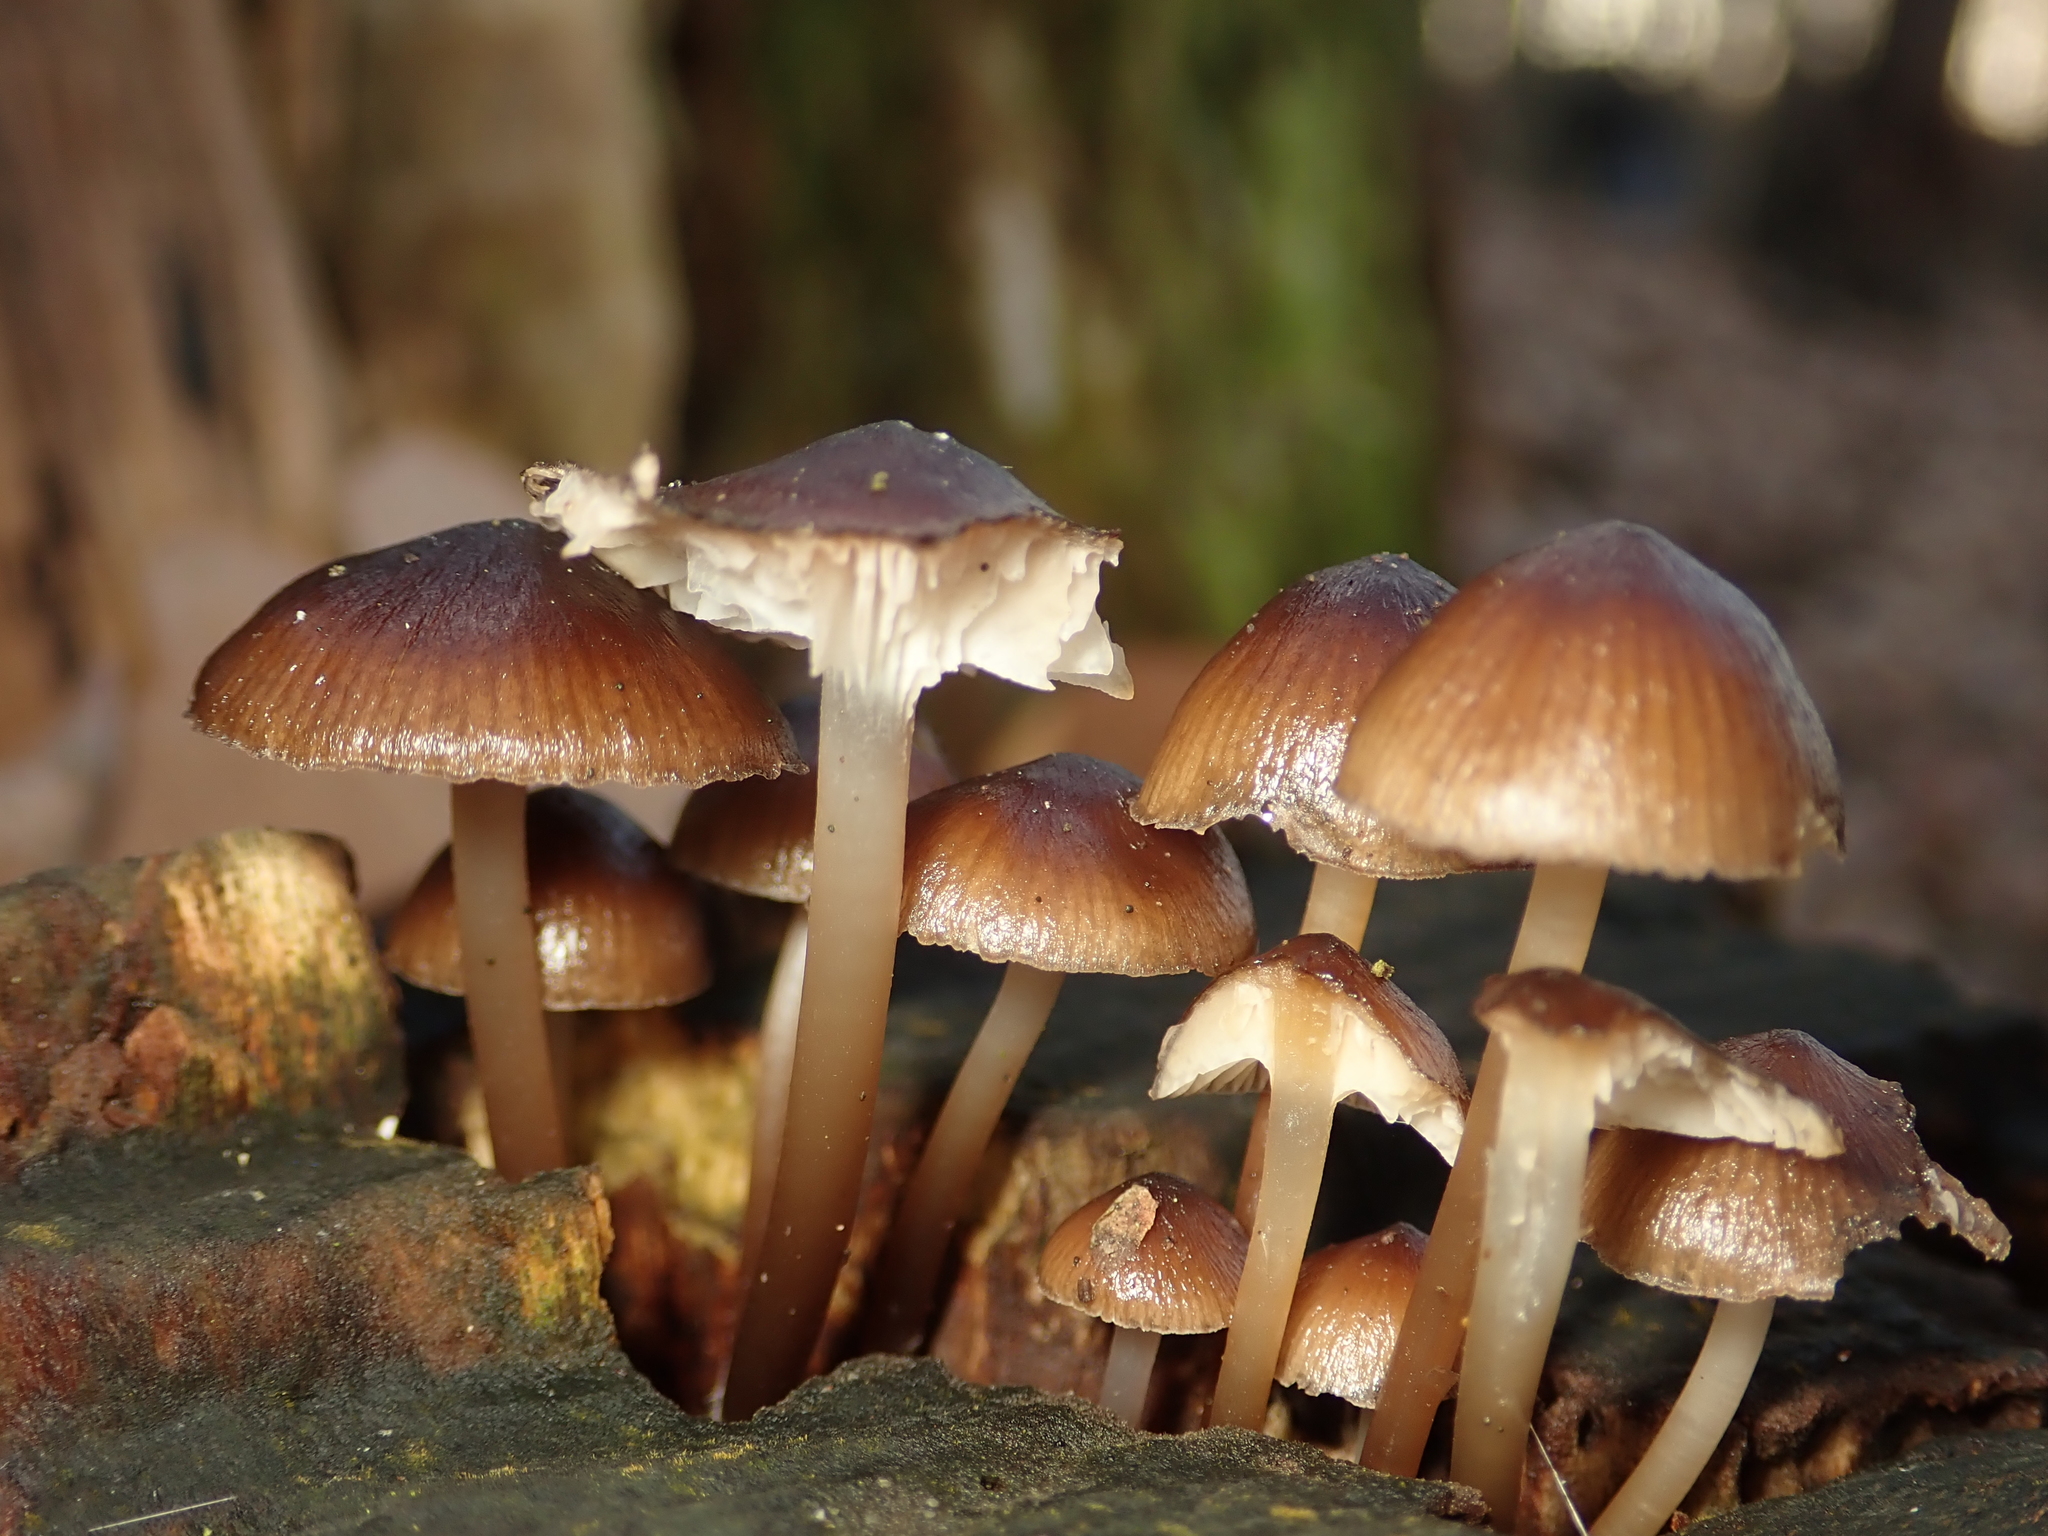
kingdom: Fungi
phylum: Basidiomycota
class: Agaricomycetes
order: Agaricales
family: Mycenaceae
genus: Mycena
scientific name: Mycena tintinnabulum
